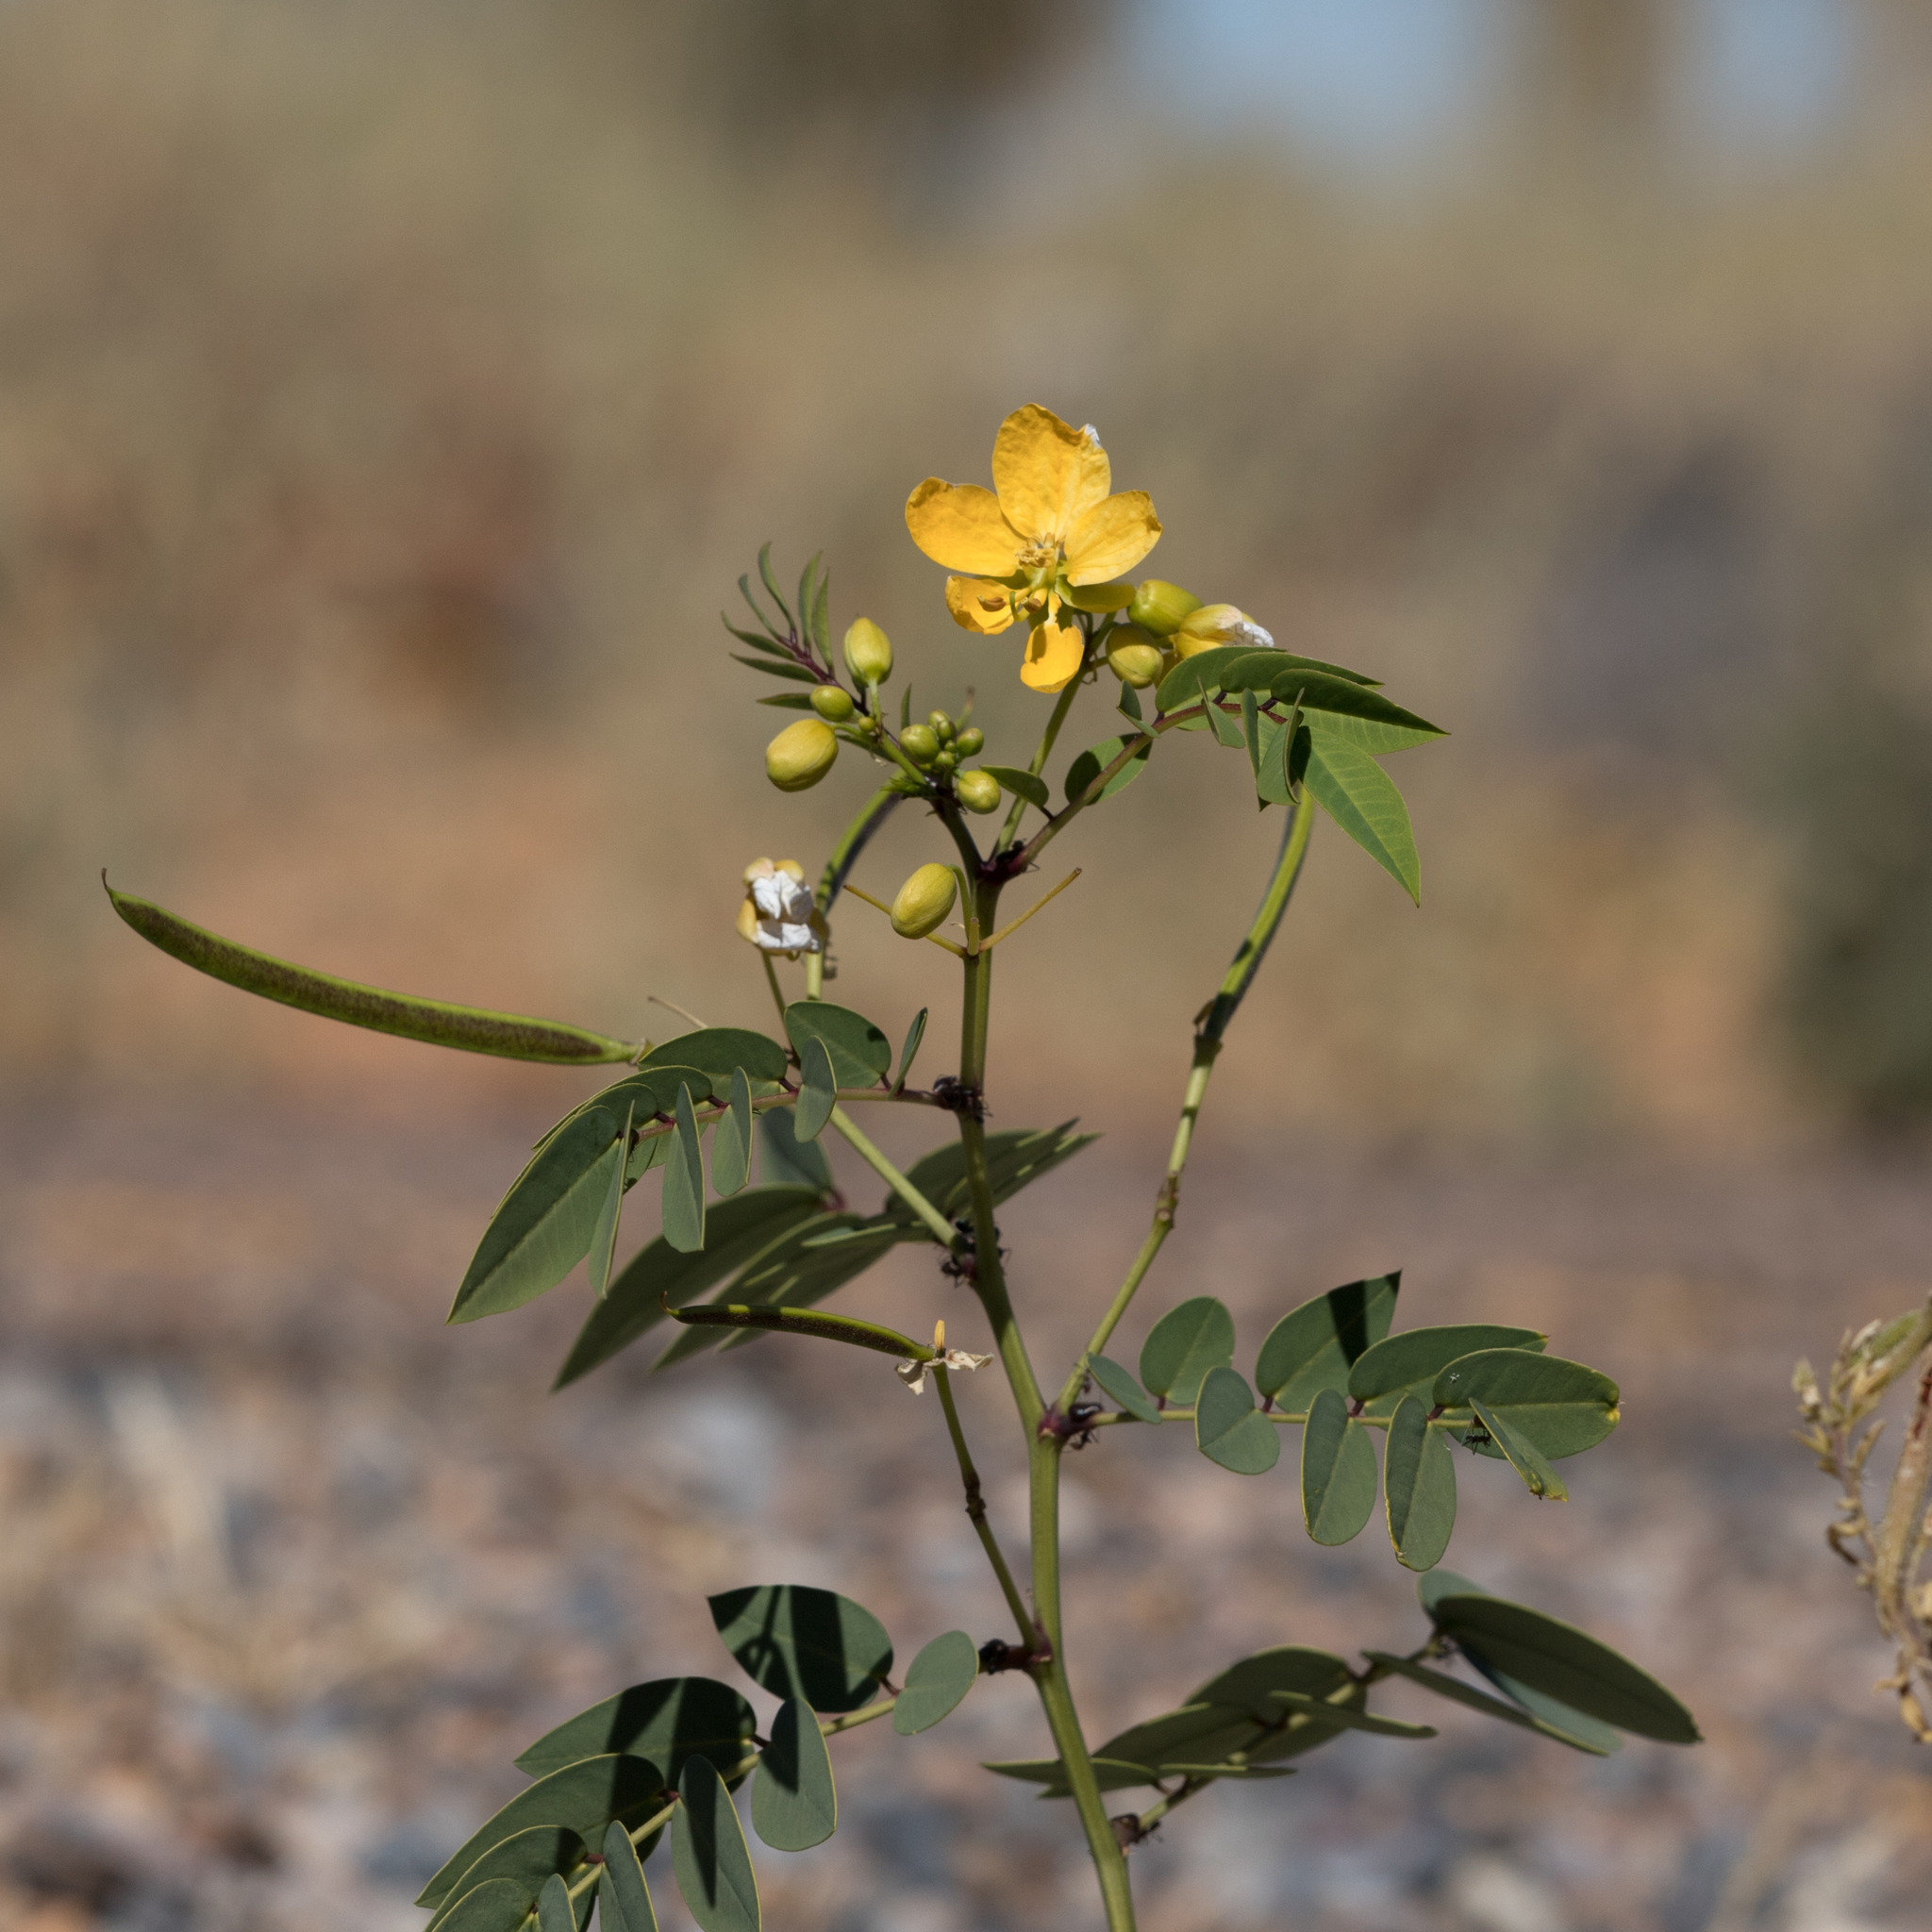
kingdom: Plantae
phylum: Tracheophyta
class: Magnoliopsida
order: Fabales
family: Fabaceae
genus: Senna
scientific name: Senna planitiicola
